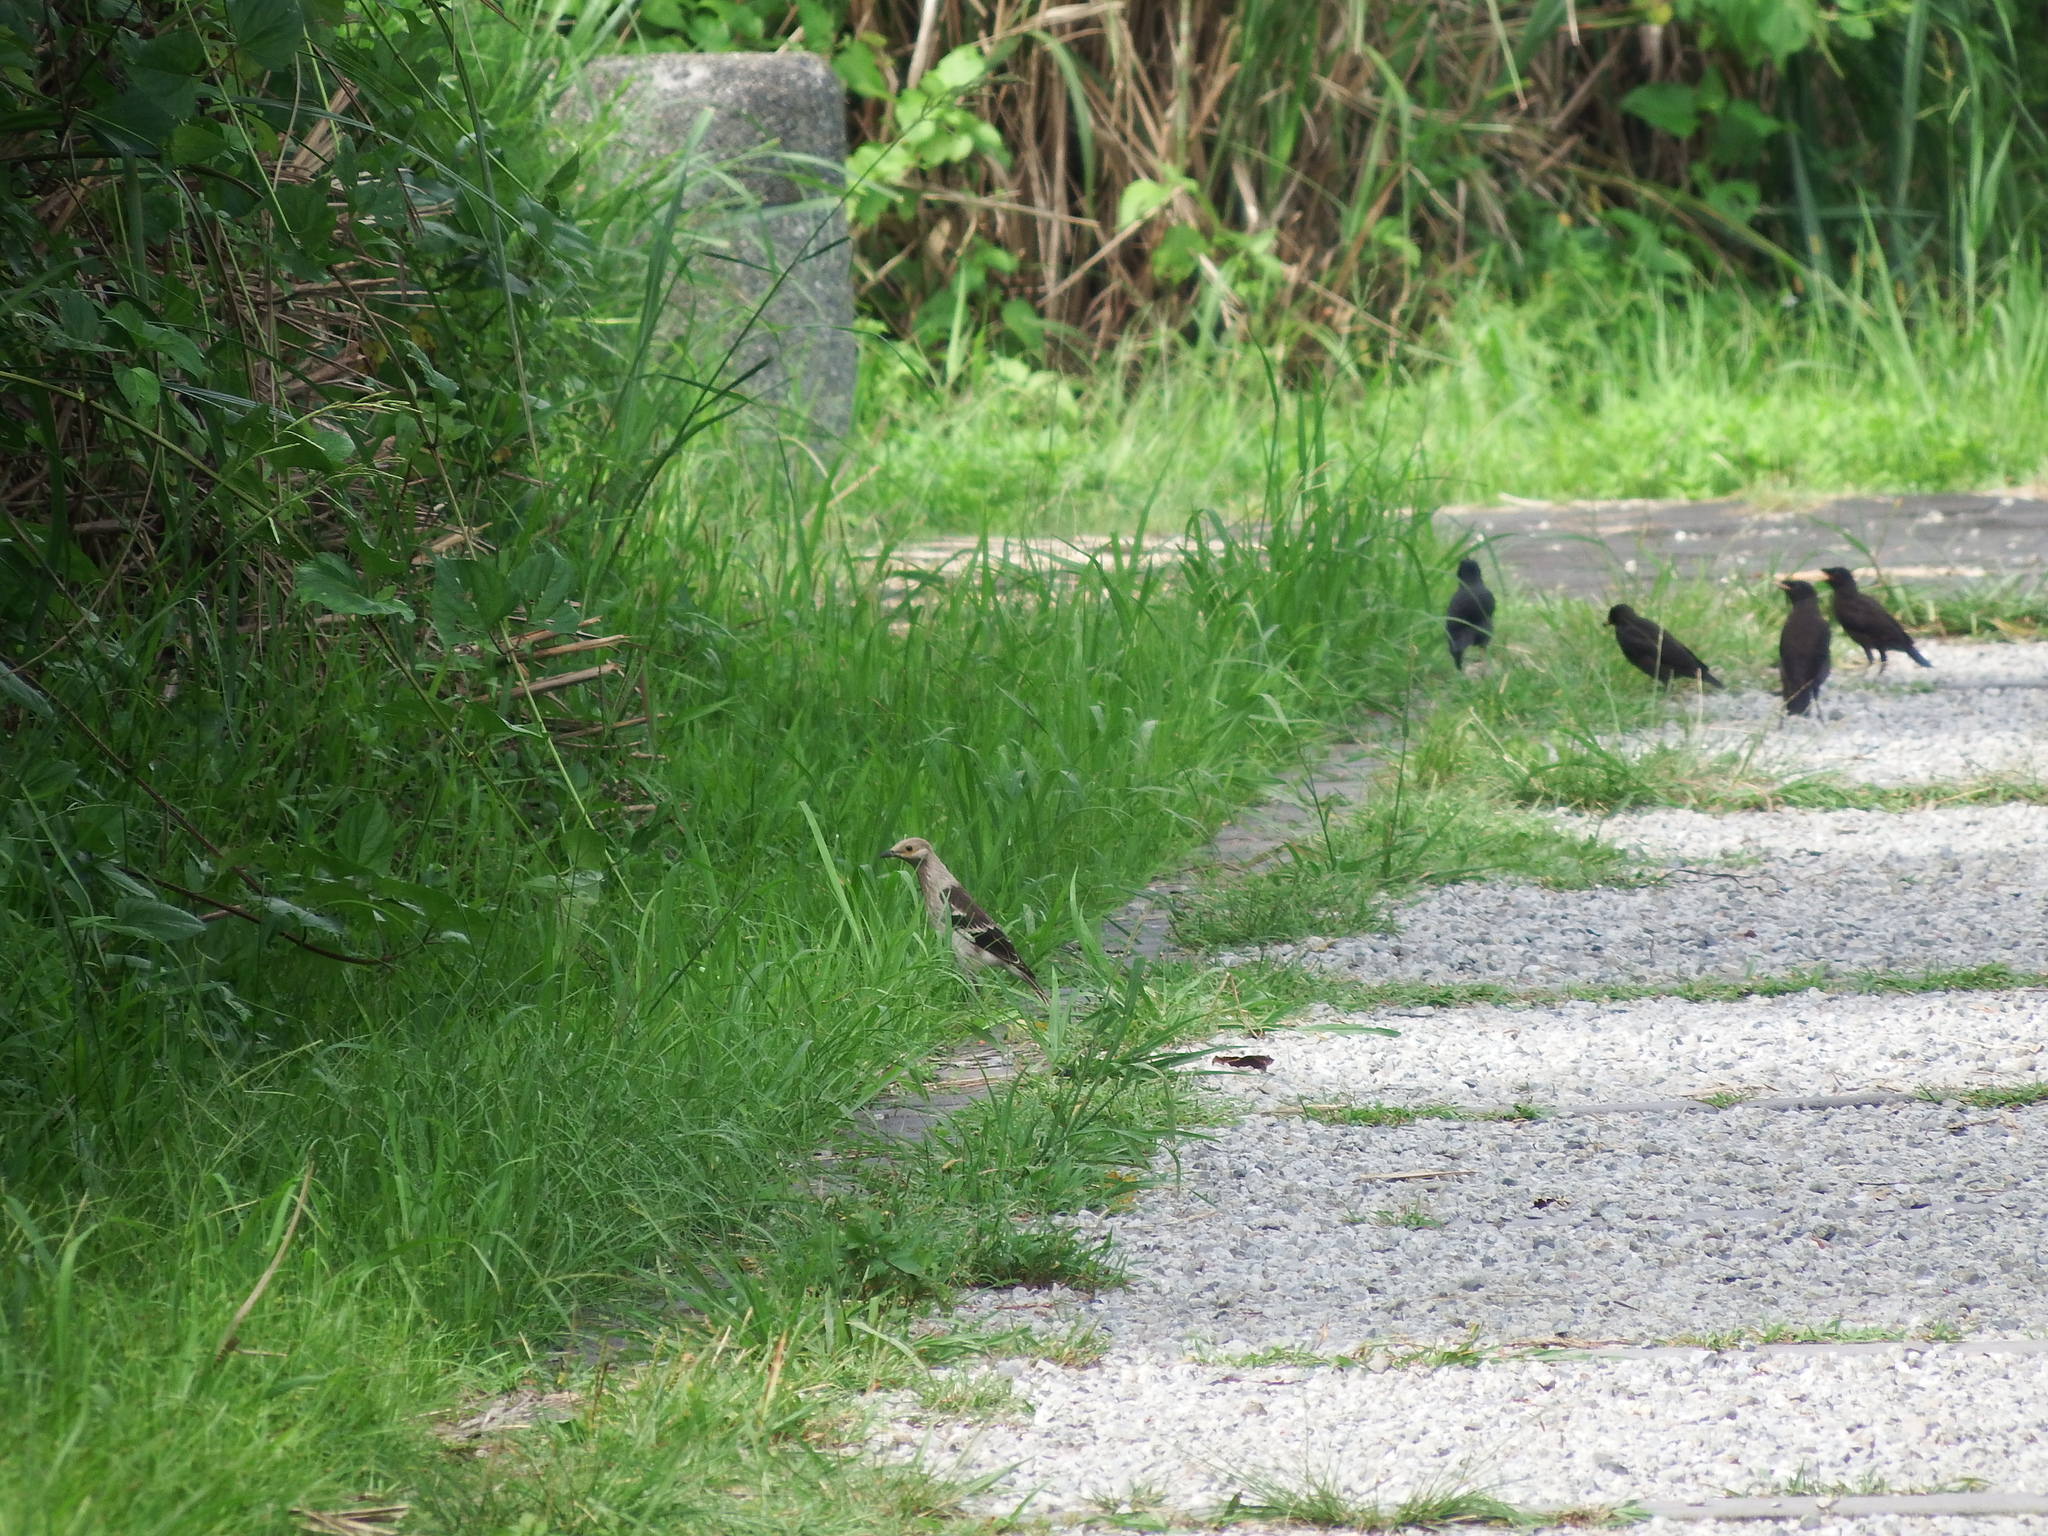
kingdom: Animalia
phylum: Chordata
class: Aves
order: Passeriformes
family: Sturnidae
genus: Gracupica
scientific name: Gracupica nigricollis
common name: Black-collared starling
